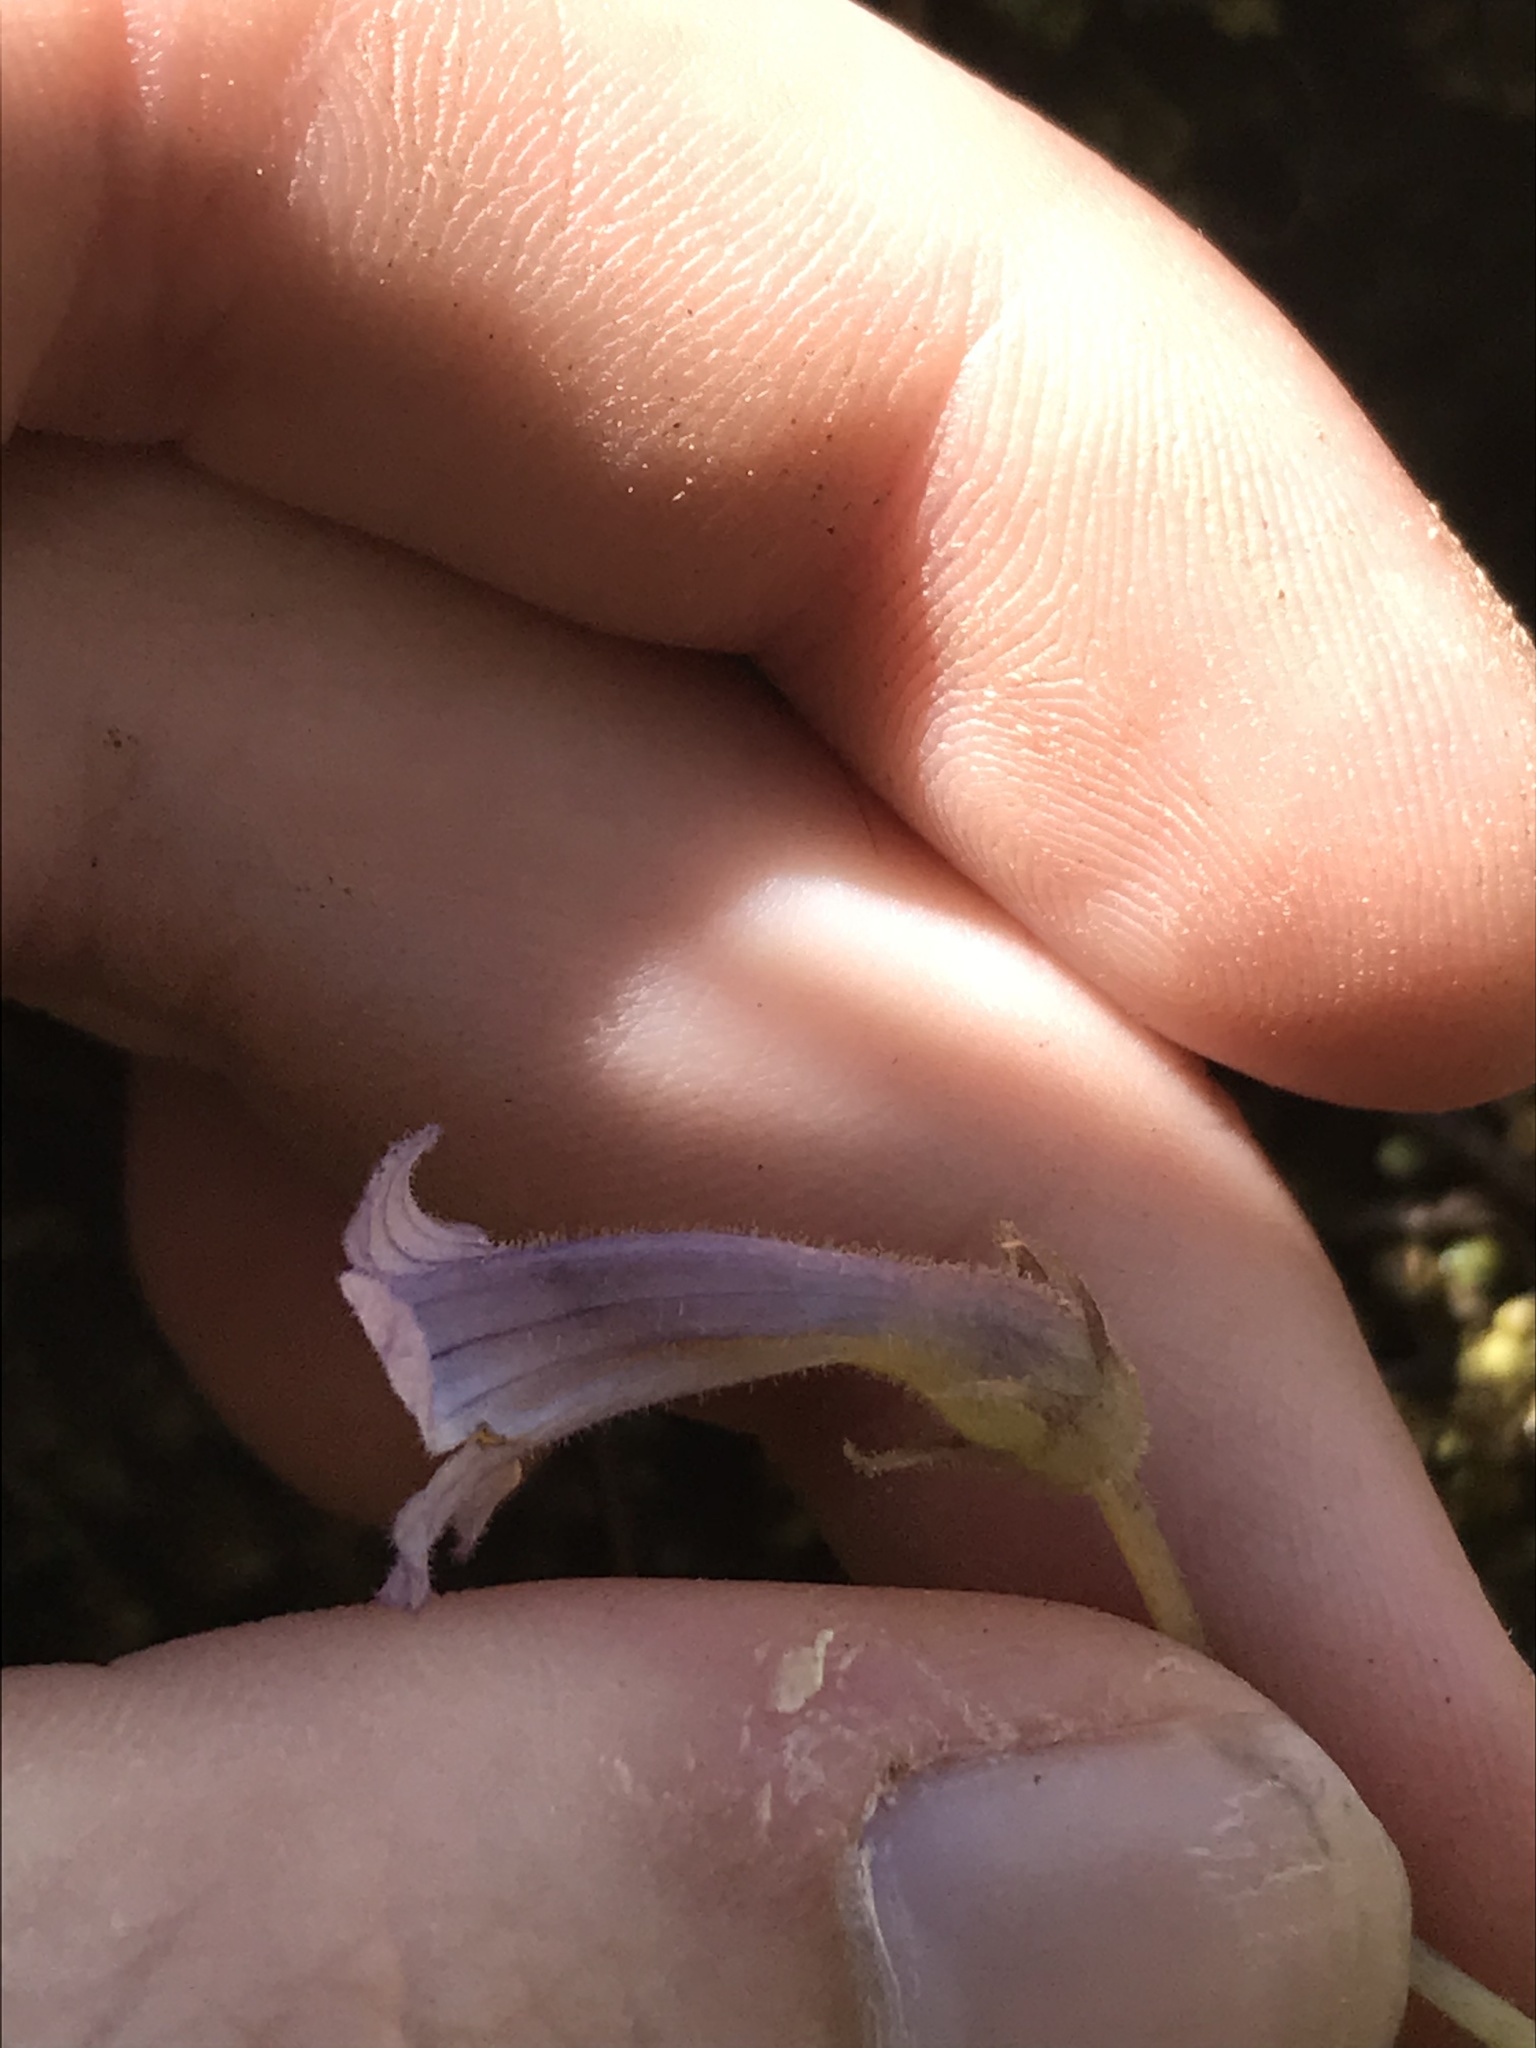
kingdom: Plantae
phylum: Tracheophyta
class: Magnoliopsida
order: Lamiales
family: Orobanchaceae
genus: Aphyllon
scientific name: Aphyllon uniflorum
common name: One-flowered broomrape
